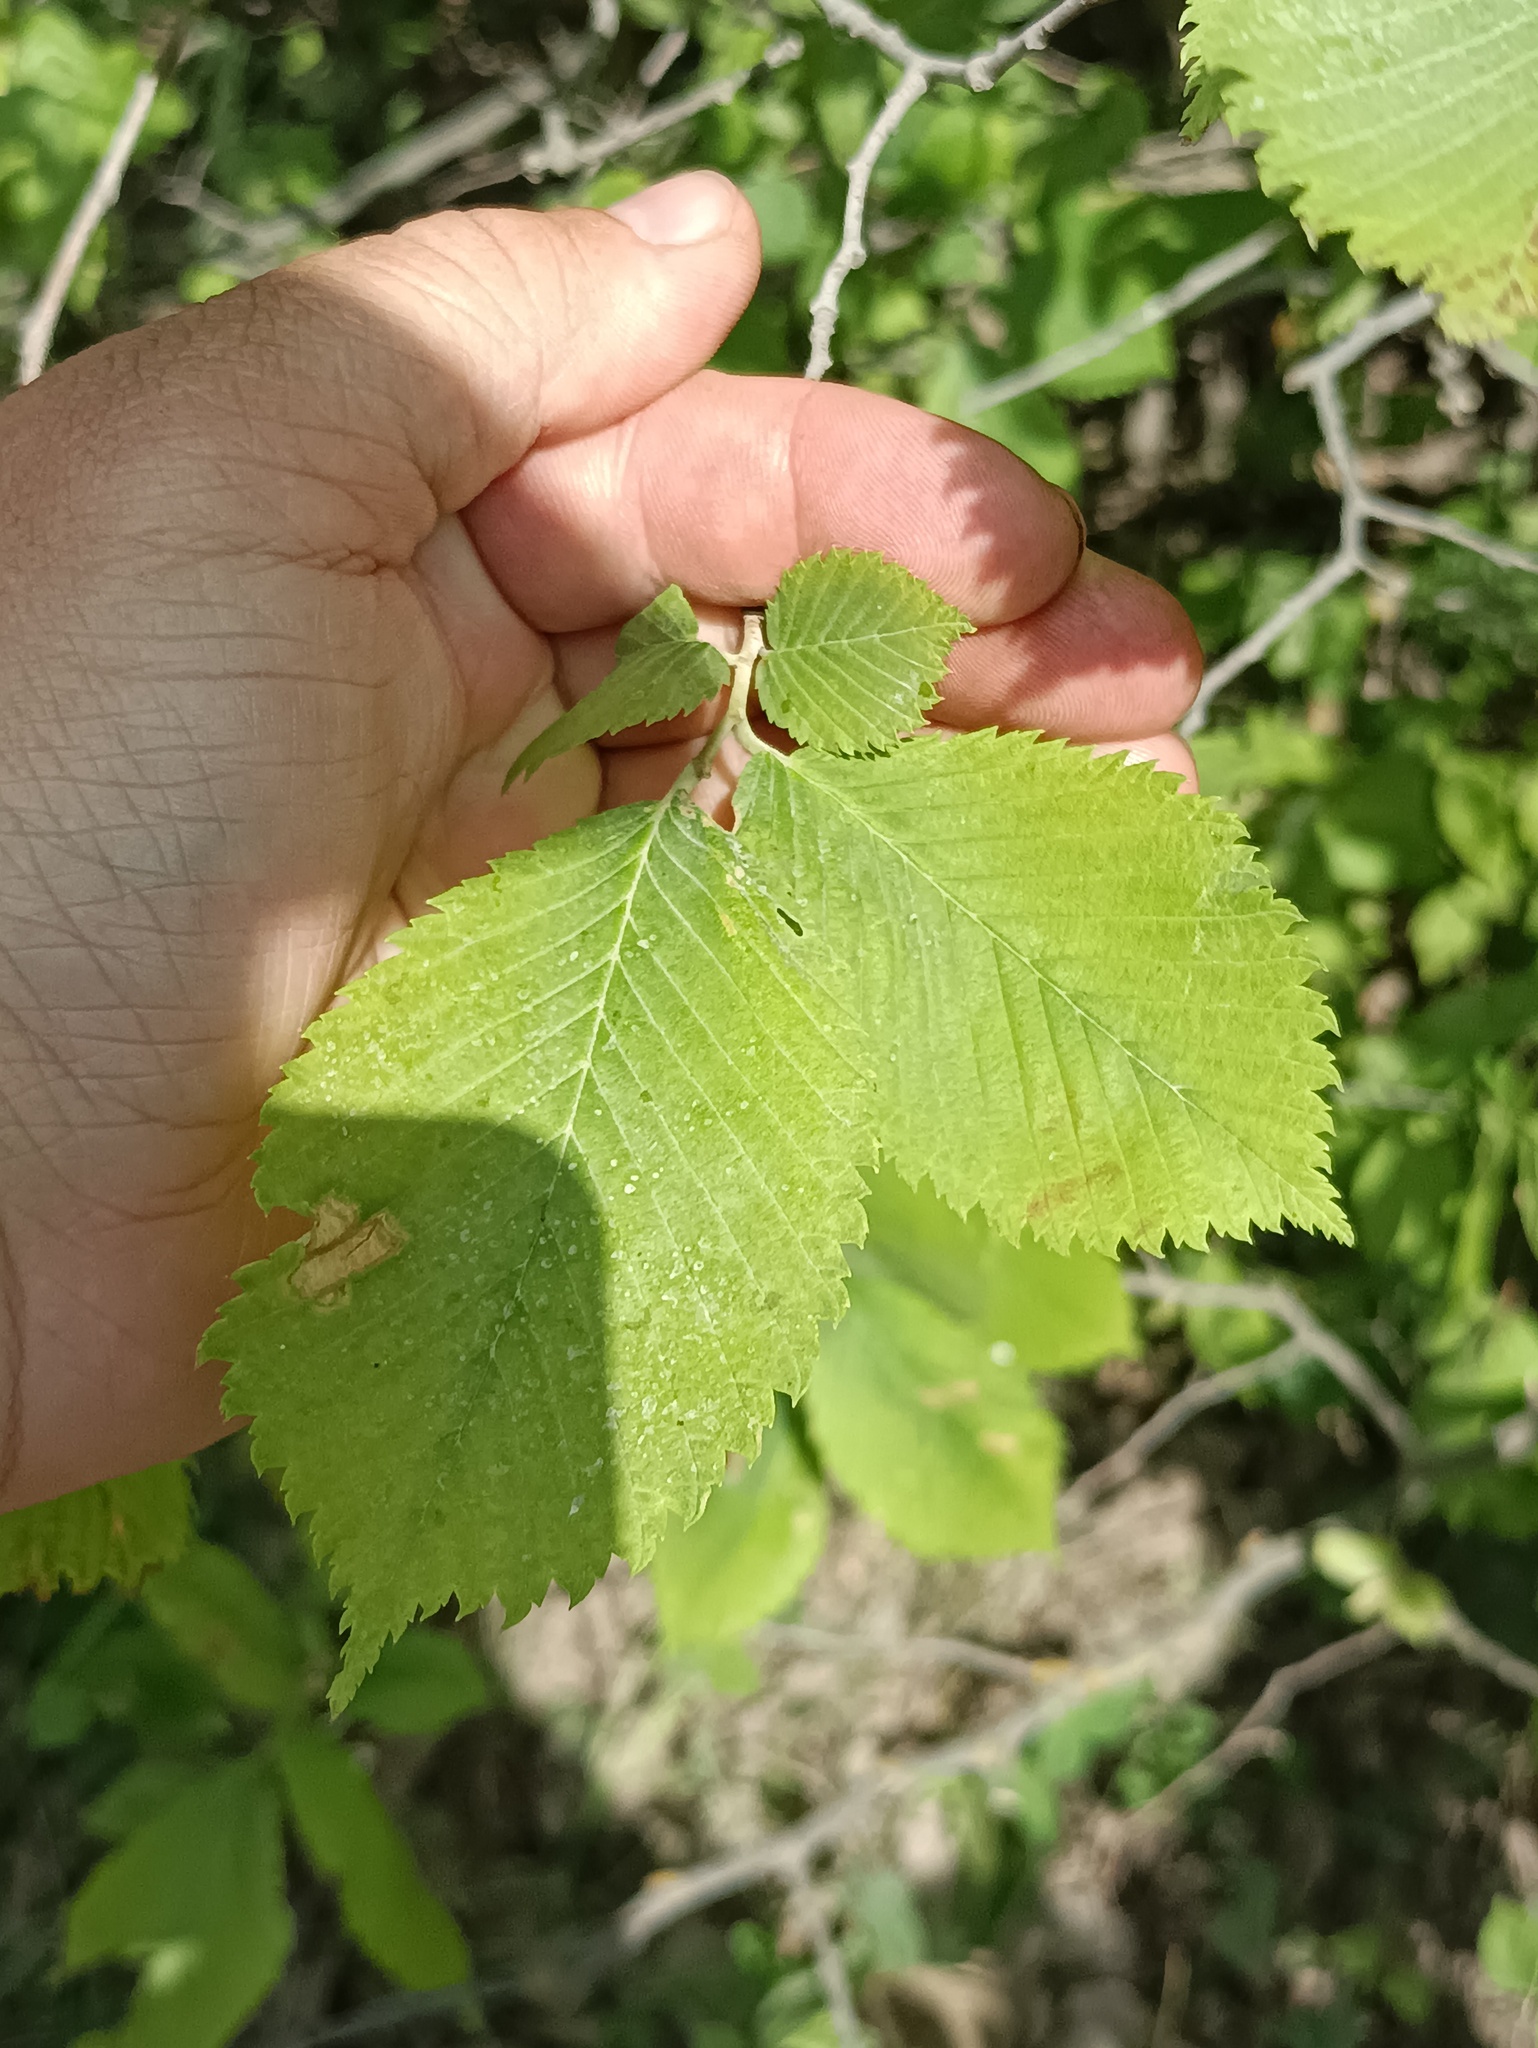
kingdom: Plantae
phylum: Tracheophyta
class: Magnoliopsida
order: Rosales
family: Ulmaceae
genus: Ulmus
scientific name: Ulmus laevis
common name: European white-elm
